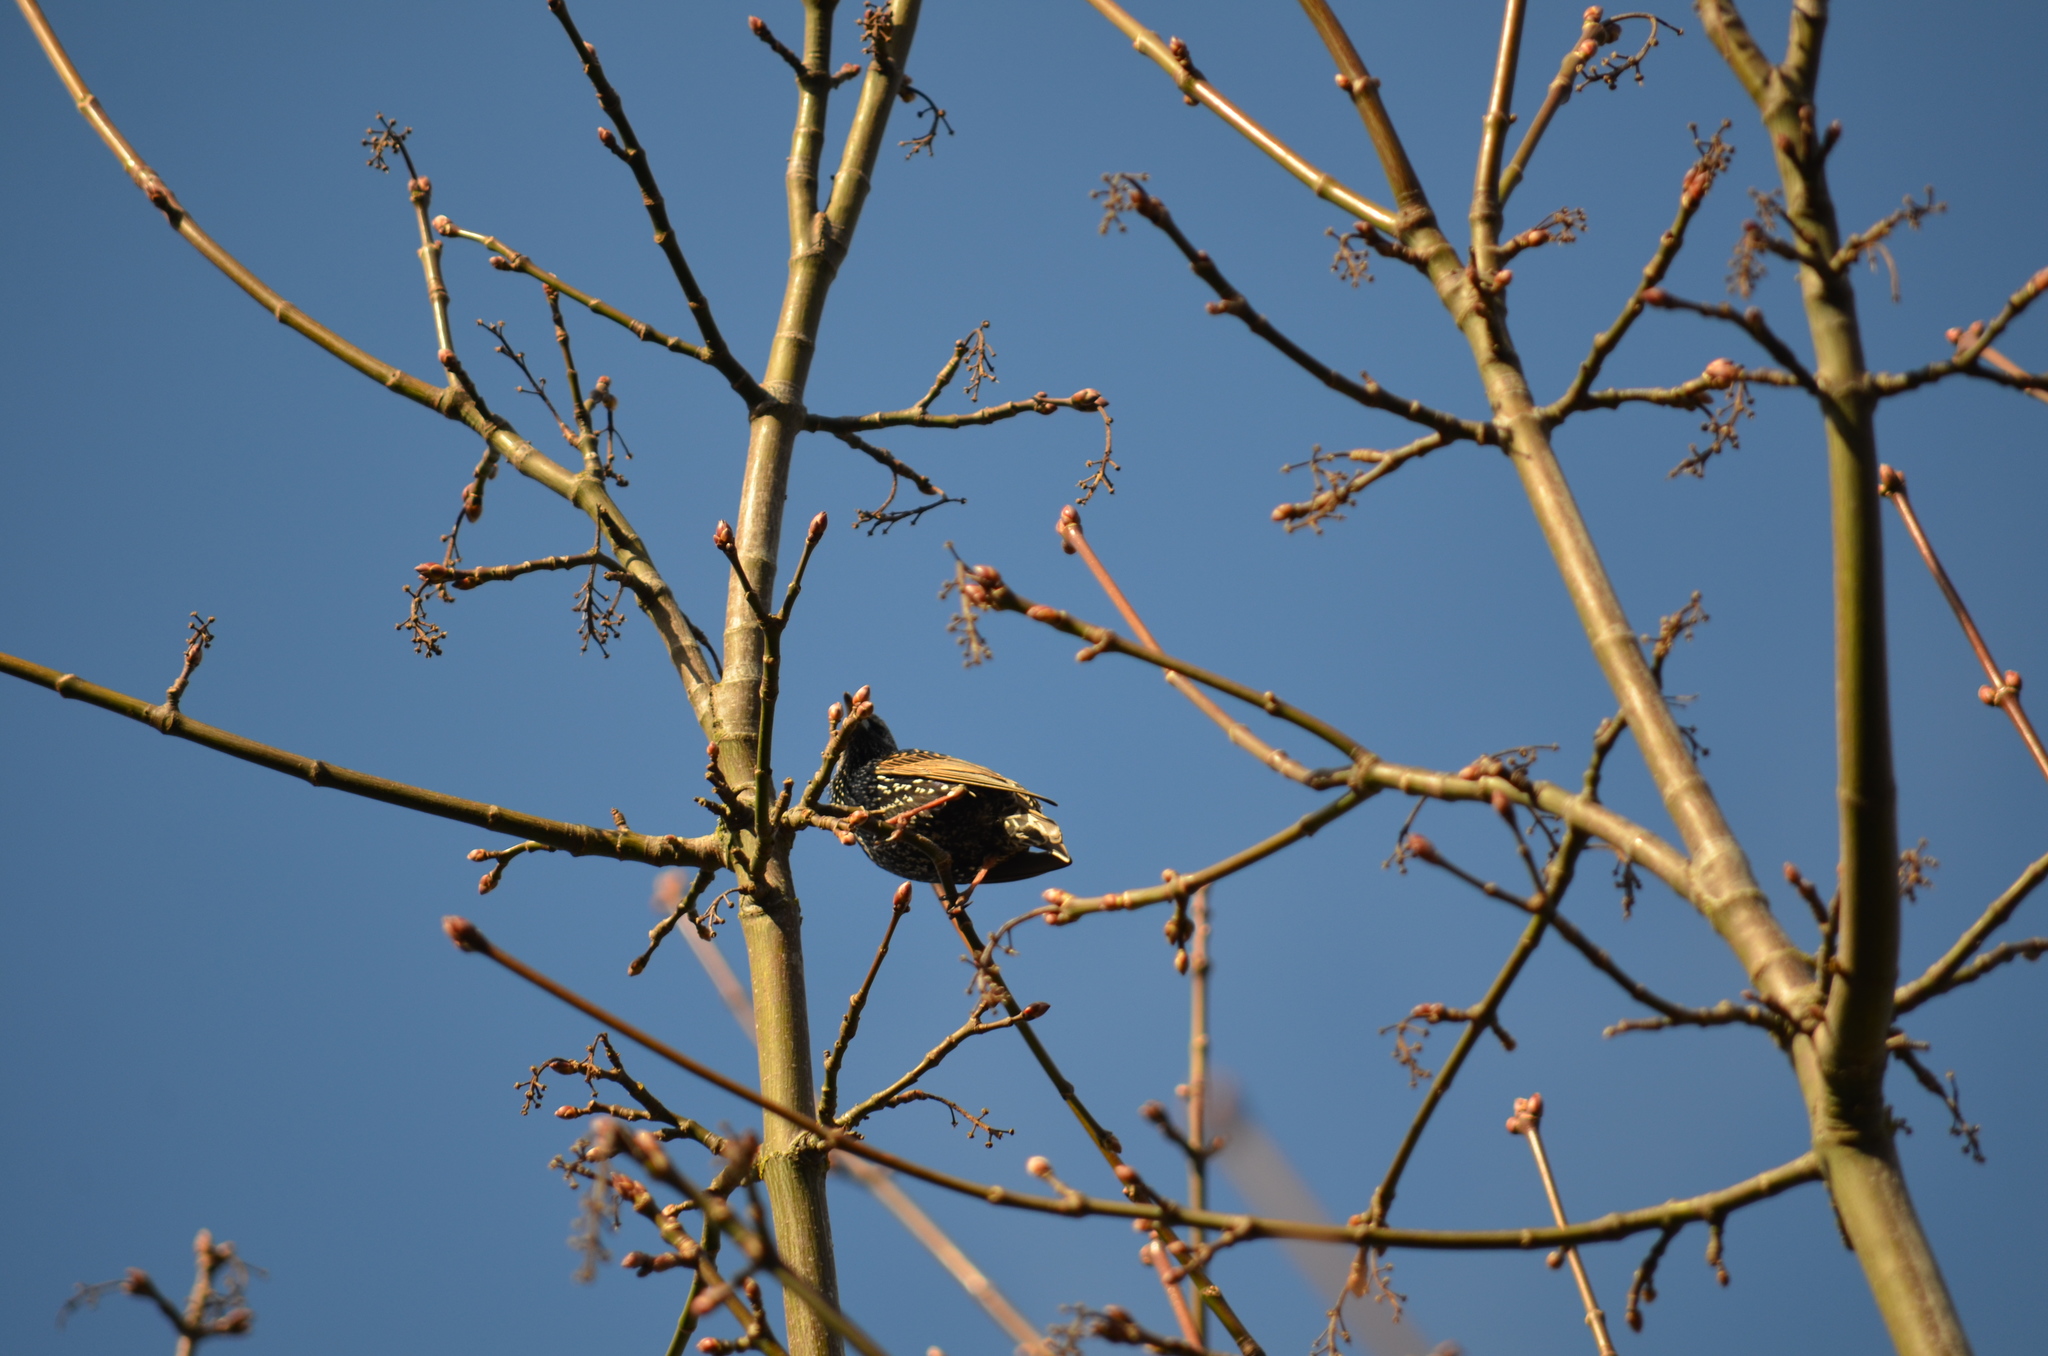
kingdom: Animalia
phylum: Chordata
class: Aves
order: Passeriformes
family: Sturnidae
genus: Sturnus
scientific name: Sturnus vulgaris
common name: Common starling
